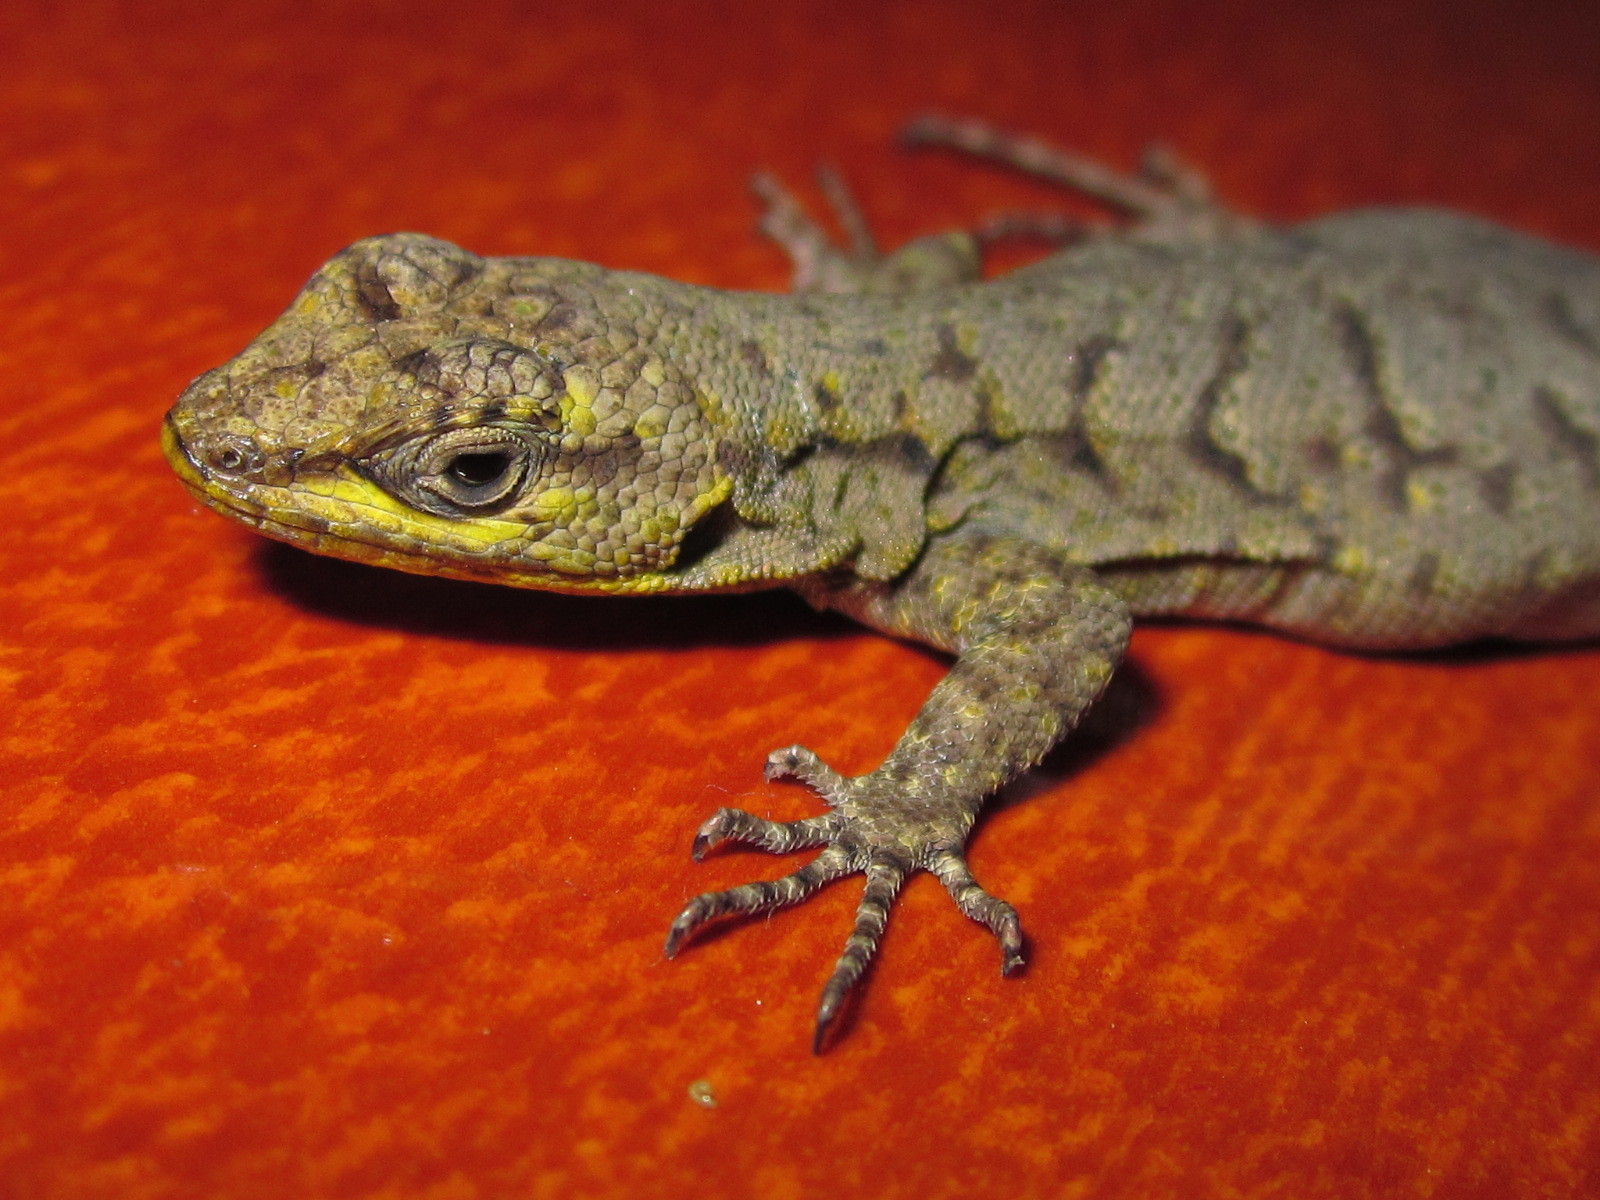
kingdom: Animalia
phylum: Chordata
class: Squamata
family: Liolaemidae
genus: Liolaemus
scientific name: Liolaemus tenuis
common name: Thin tree iguana
